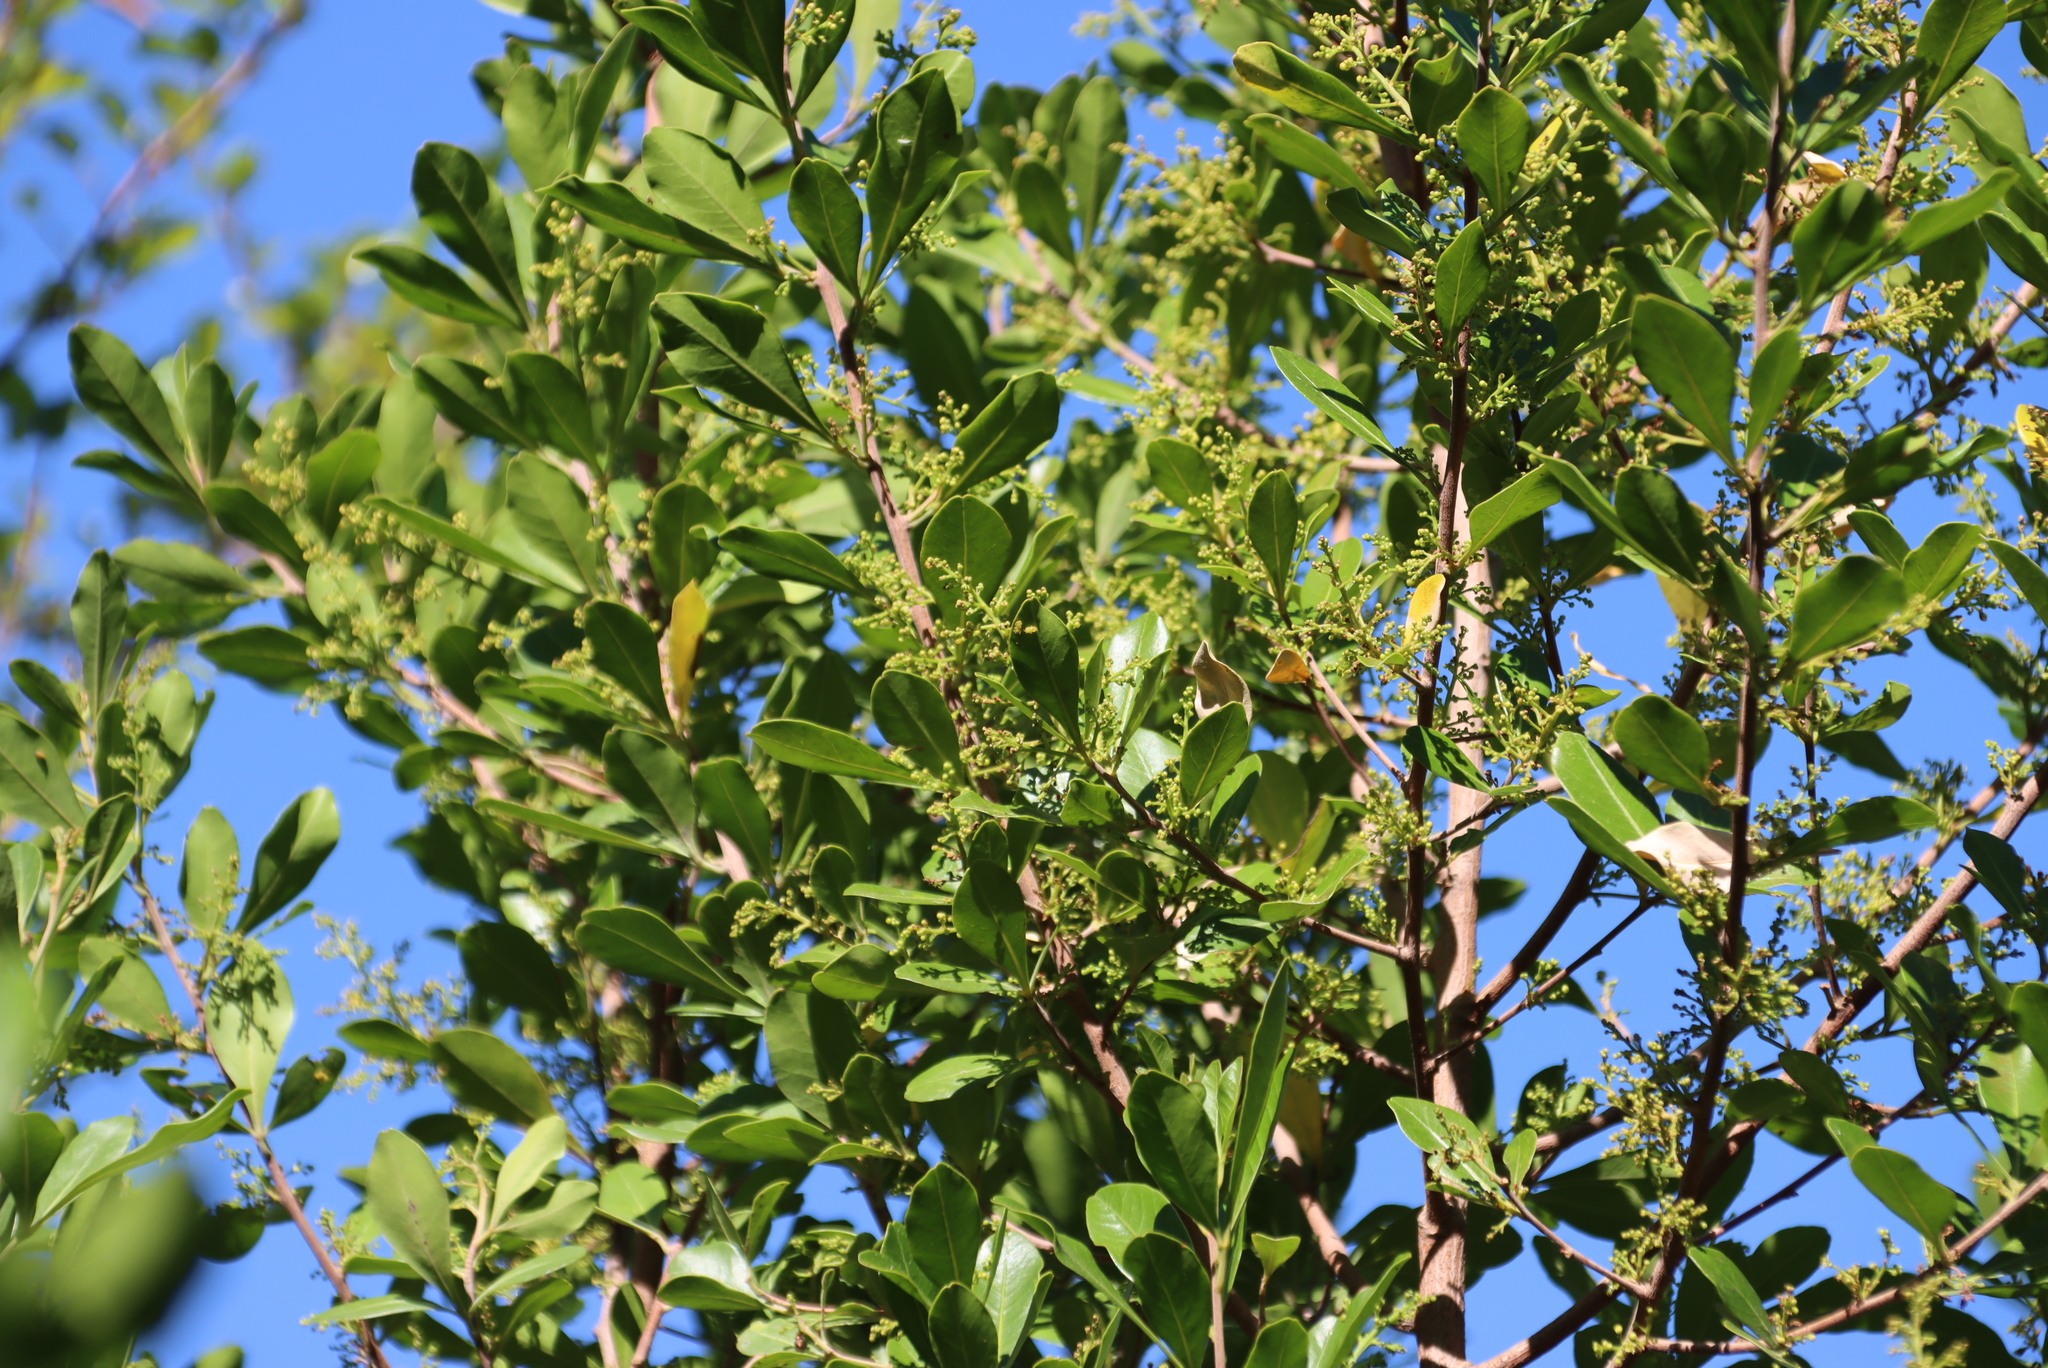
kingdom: Plantae
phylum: Tracheophyta
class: Magnoliopsida
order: Sapindales
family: Anacardiaceae
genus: Searsia
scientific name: Searsia lucida
